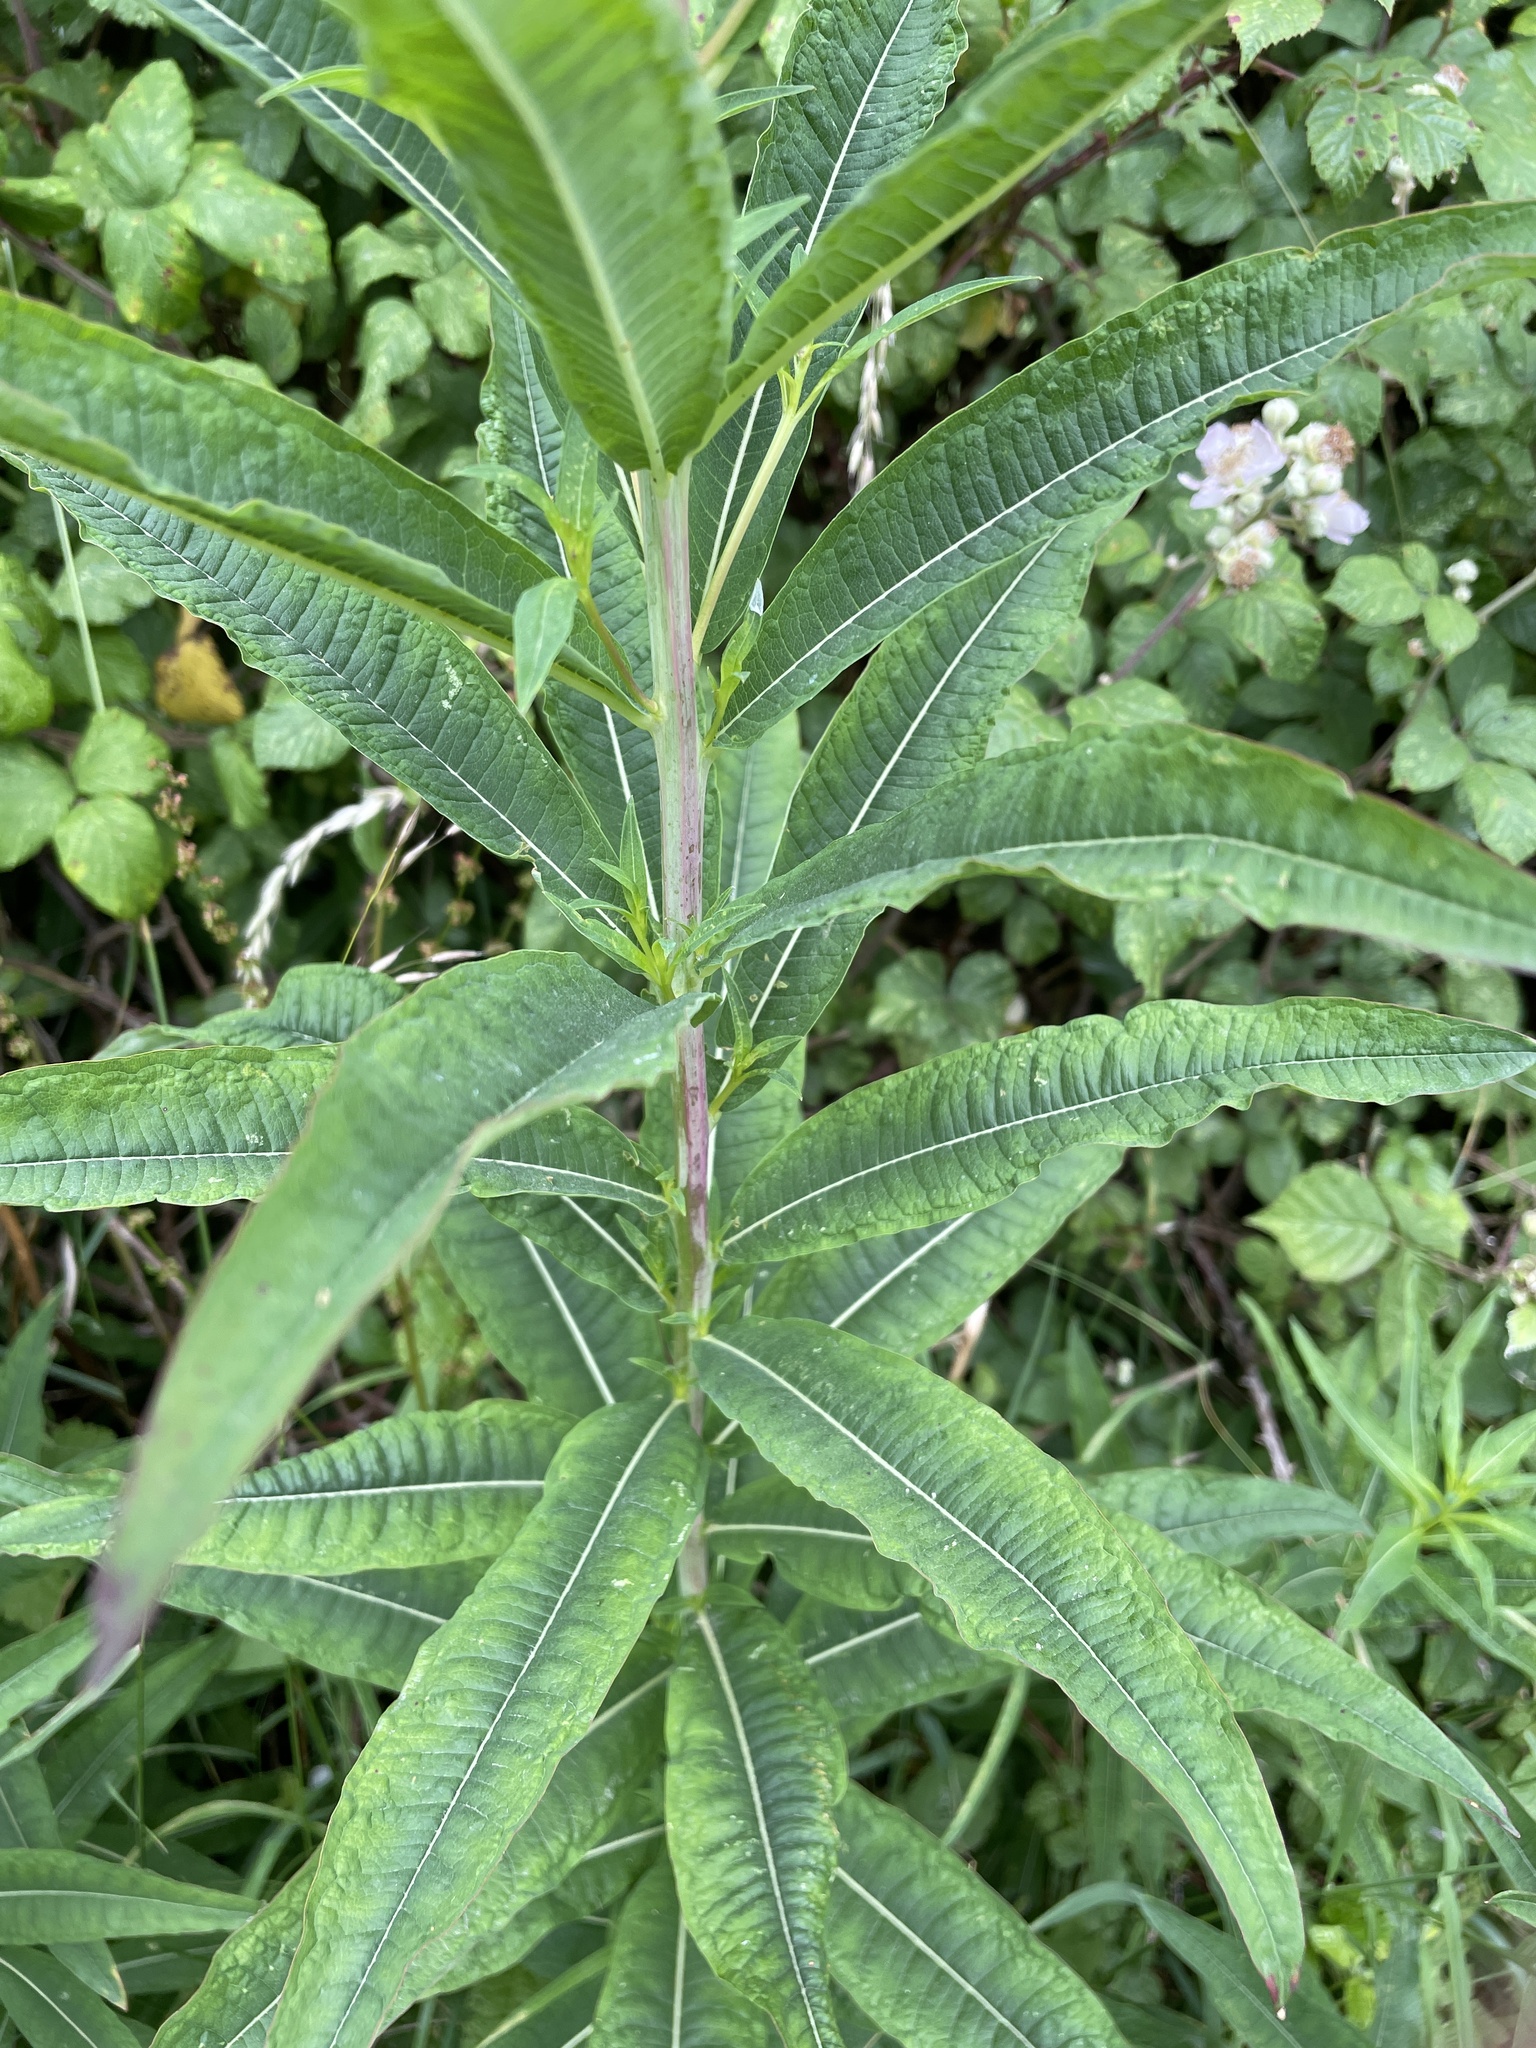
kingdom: Plantae
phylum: Tracheophyta
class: Magnoliopsida
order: Myrtales
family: Onagraceae
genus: Chamaenerion
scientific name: Chamaenerion angustifolium
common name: Fireweed
